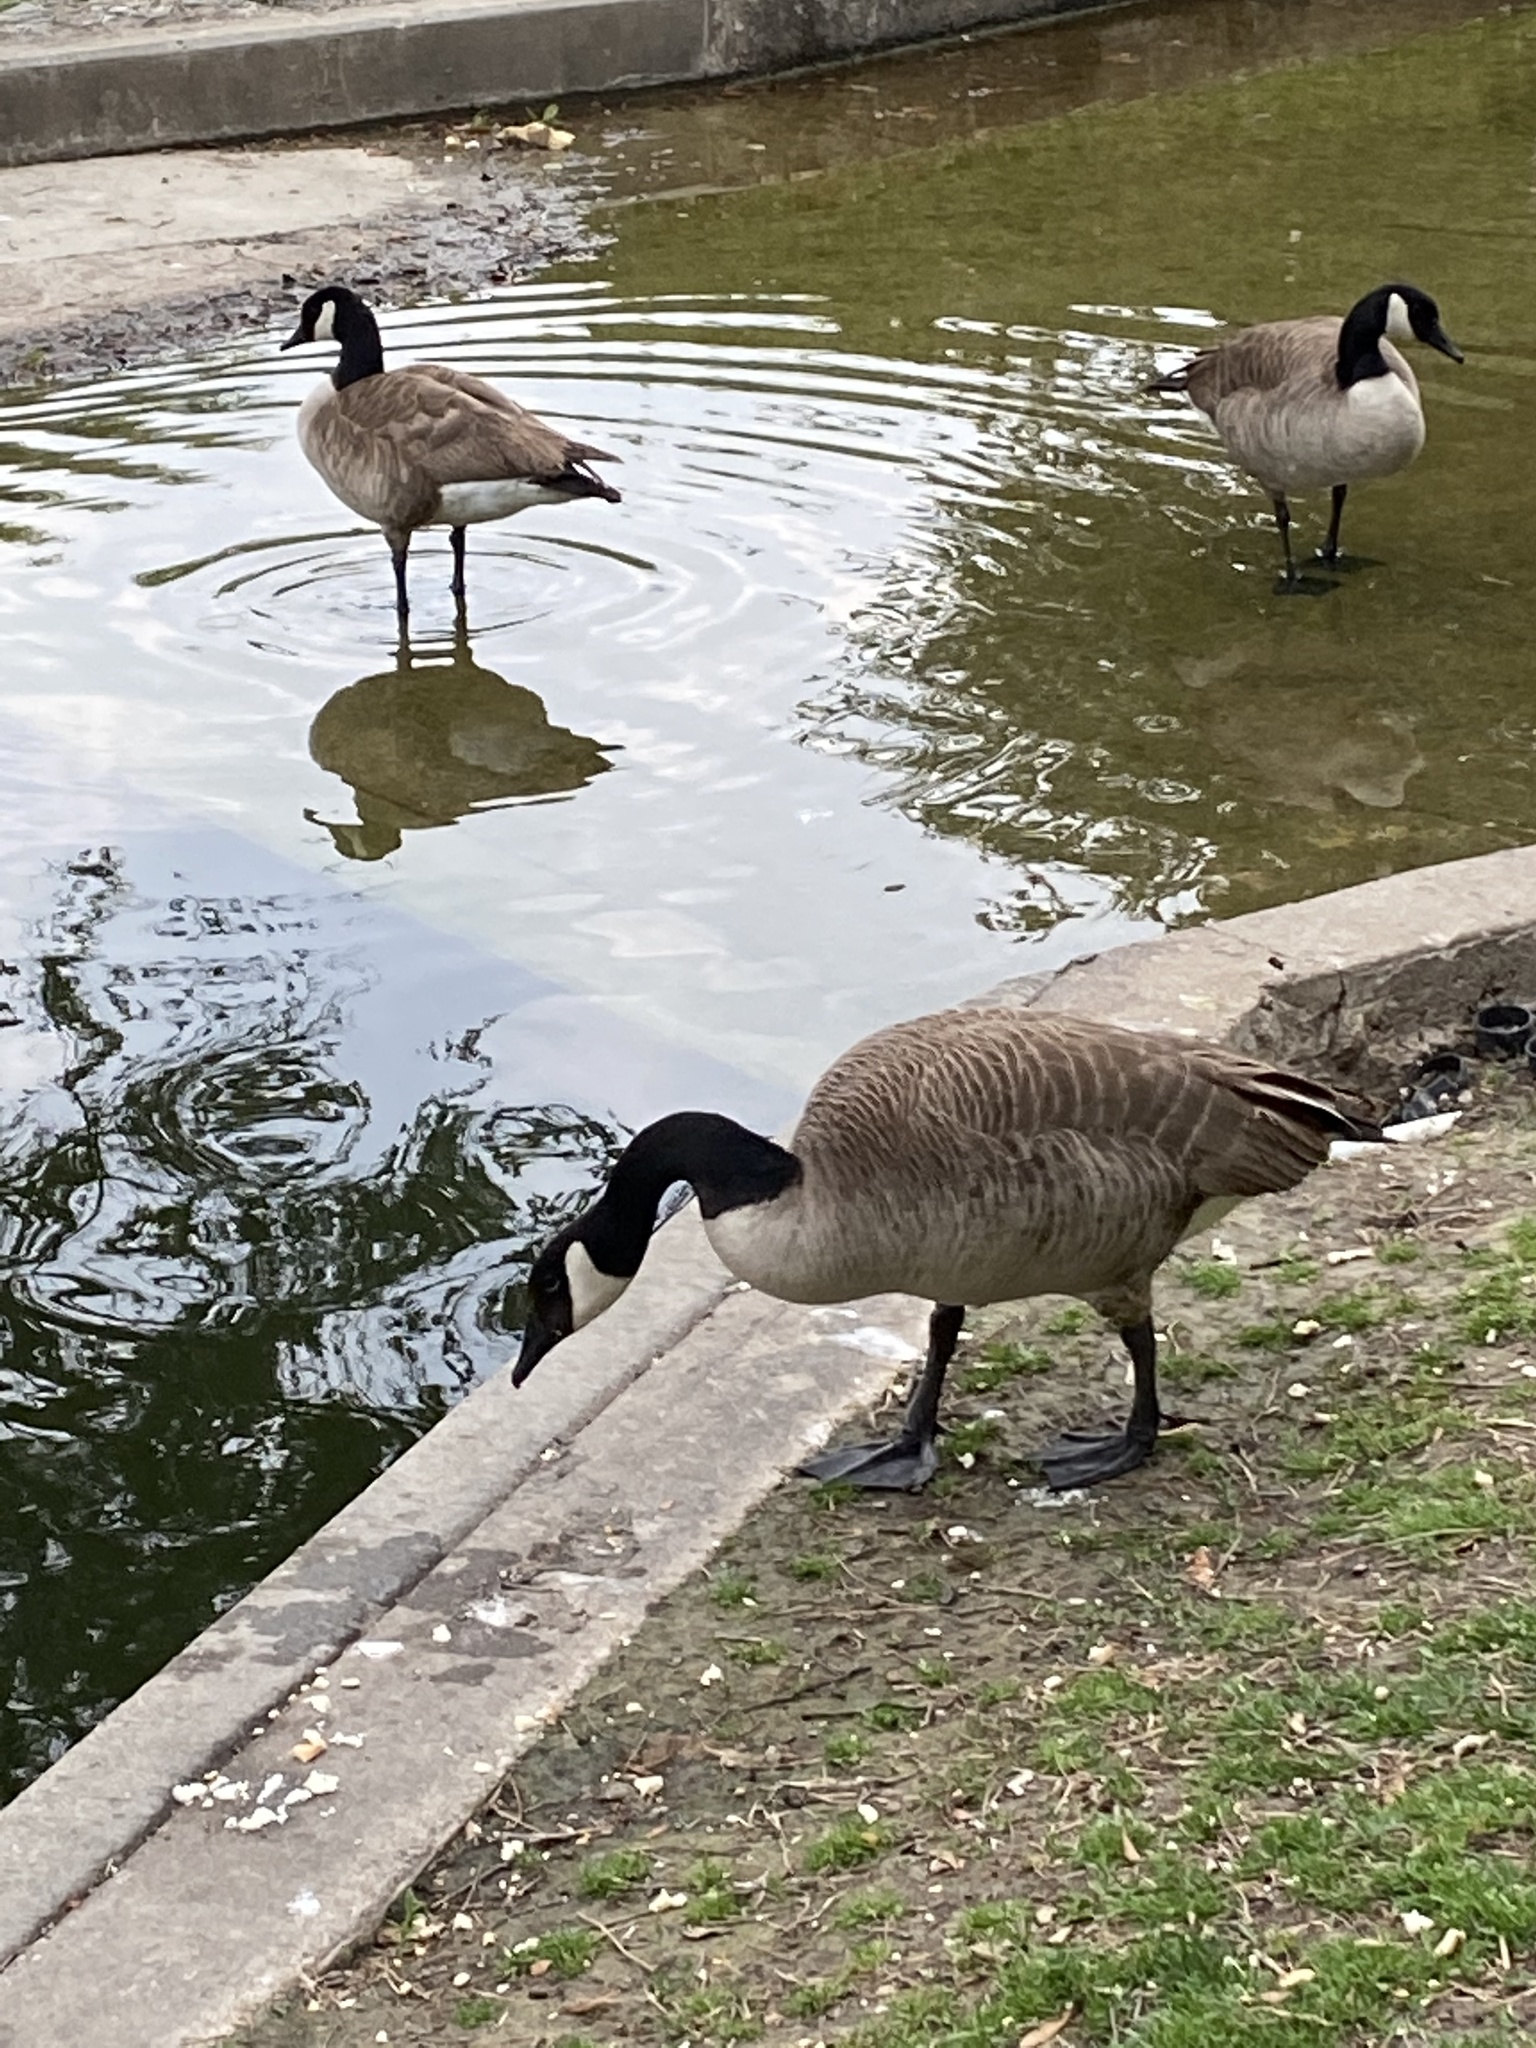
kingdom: Animalia
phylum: Chordata
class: Aves
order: Anseriformes
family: Anatidae
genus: Branta
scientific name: Branta canadensis
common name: Canada goose
